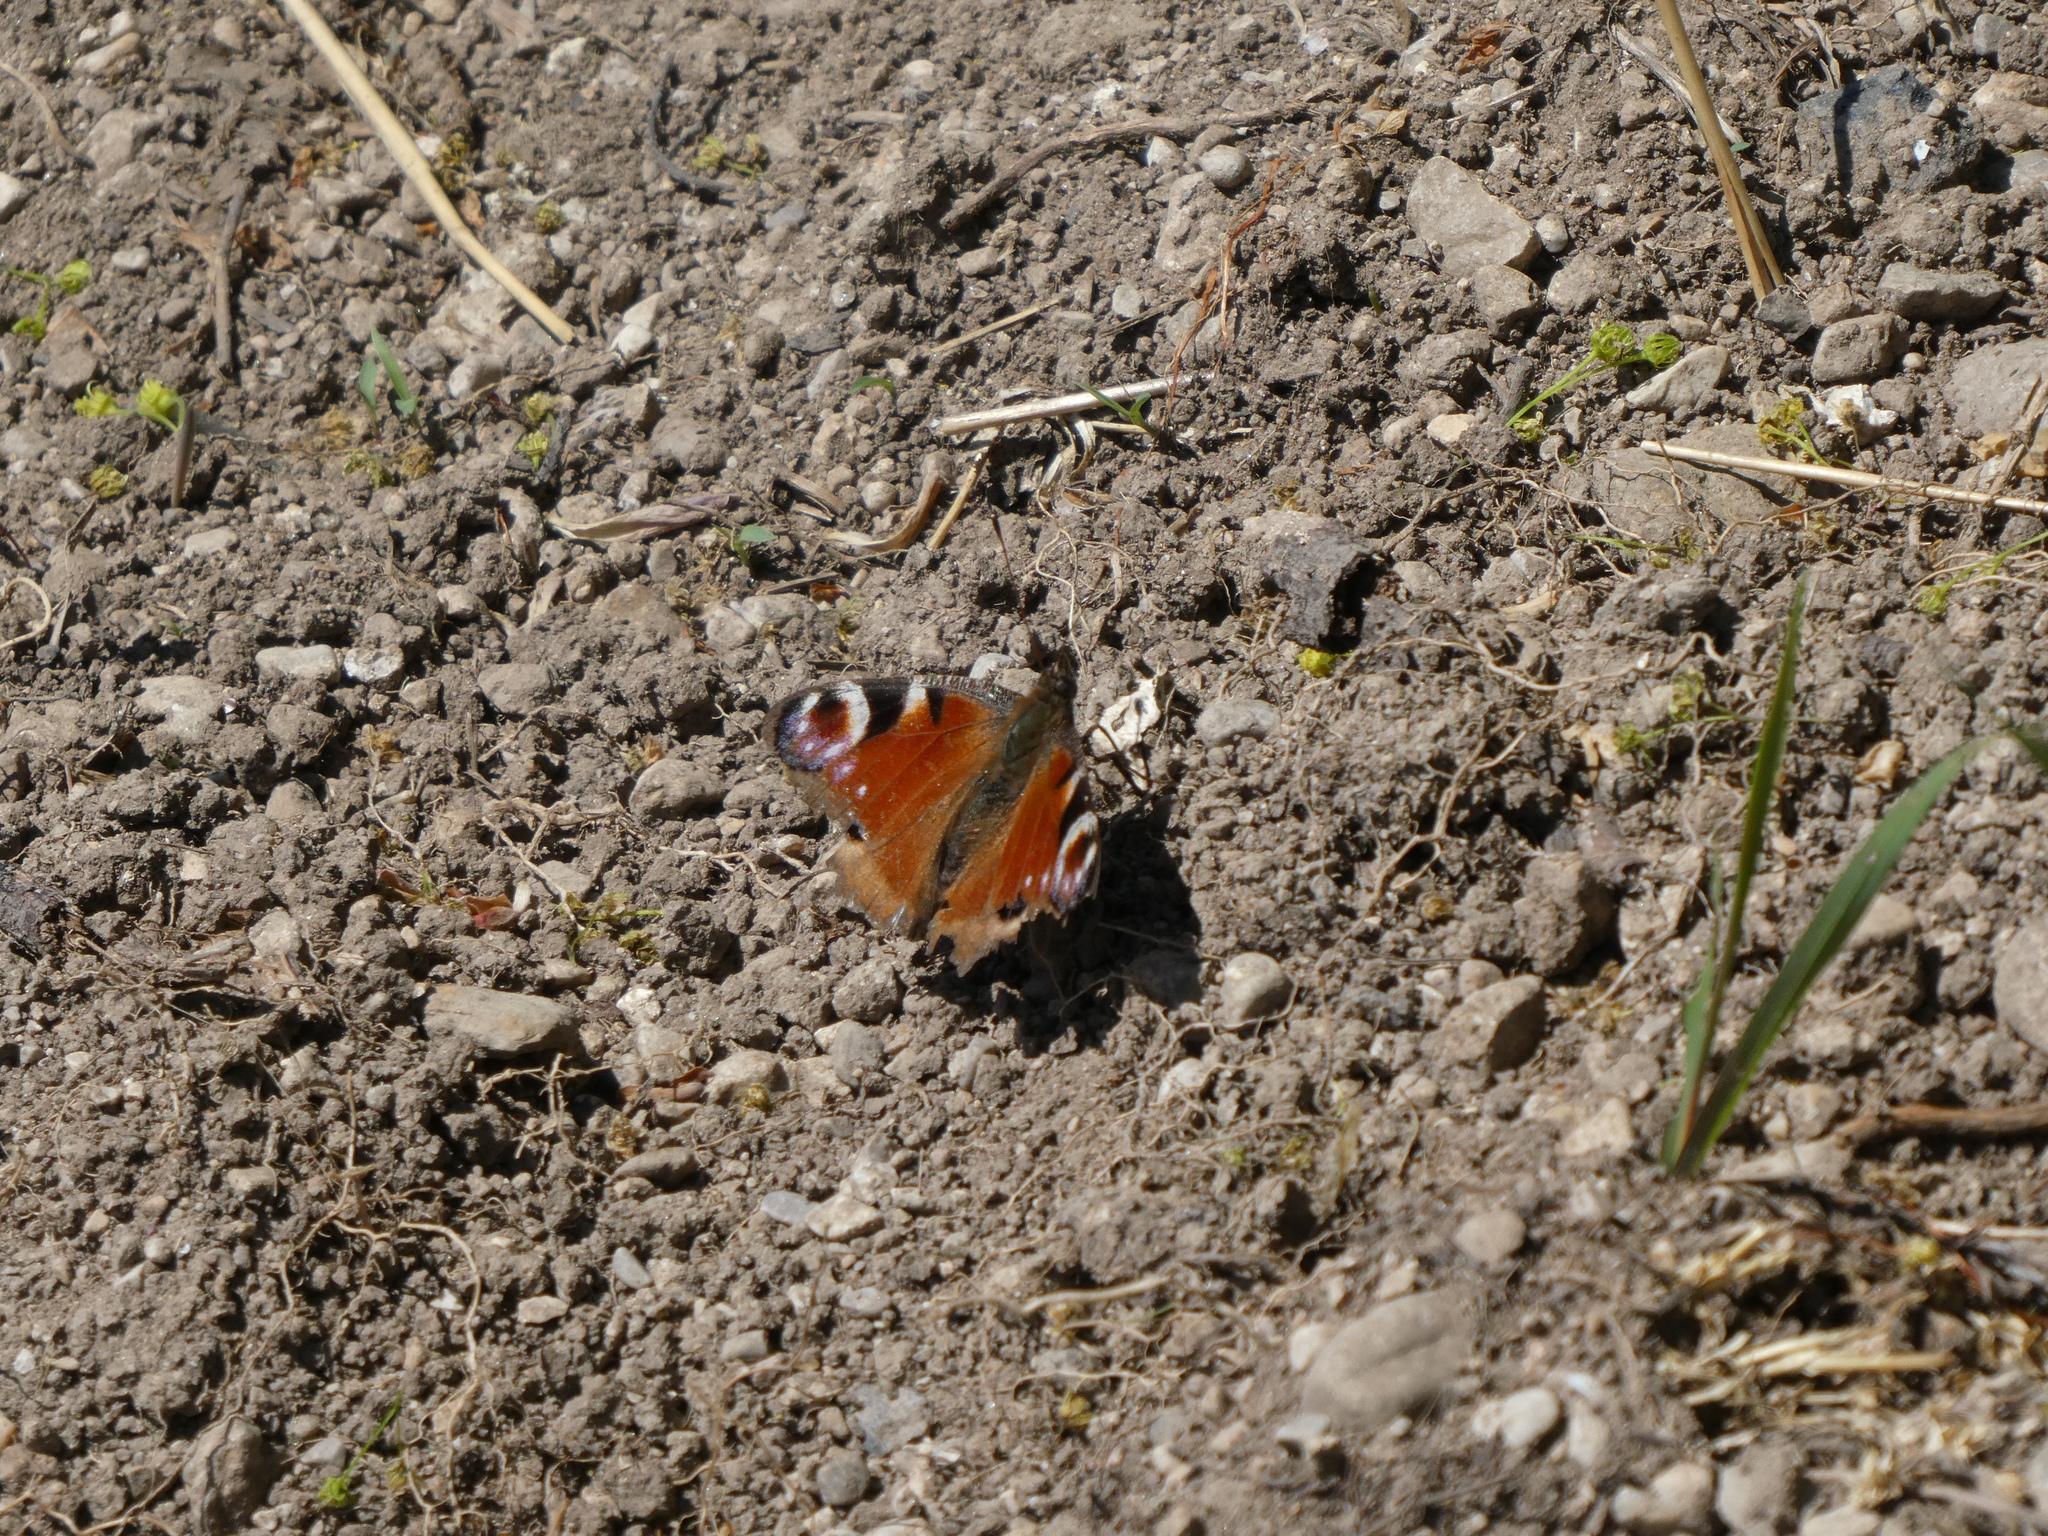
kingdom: Animalia
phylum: Arthropoda
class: Insecta
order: Lepidoptera
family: Nymphalidae
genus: Aglais
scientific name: Aglais io
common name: Peacock
